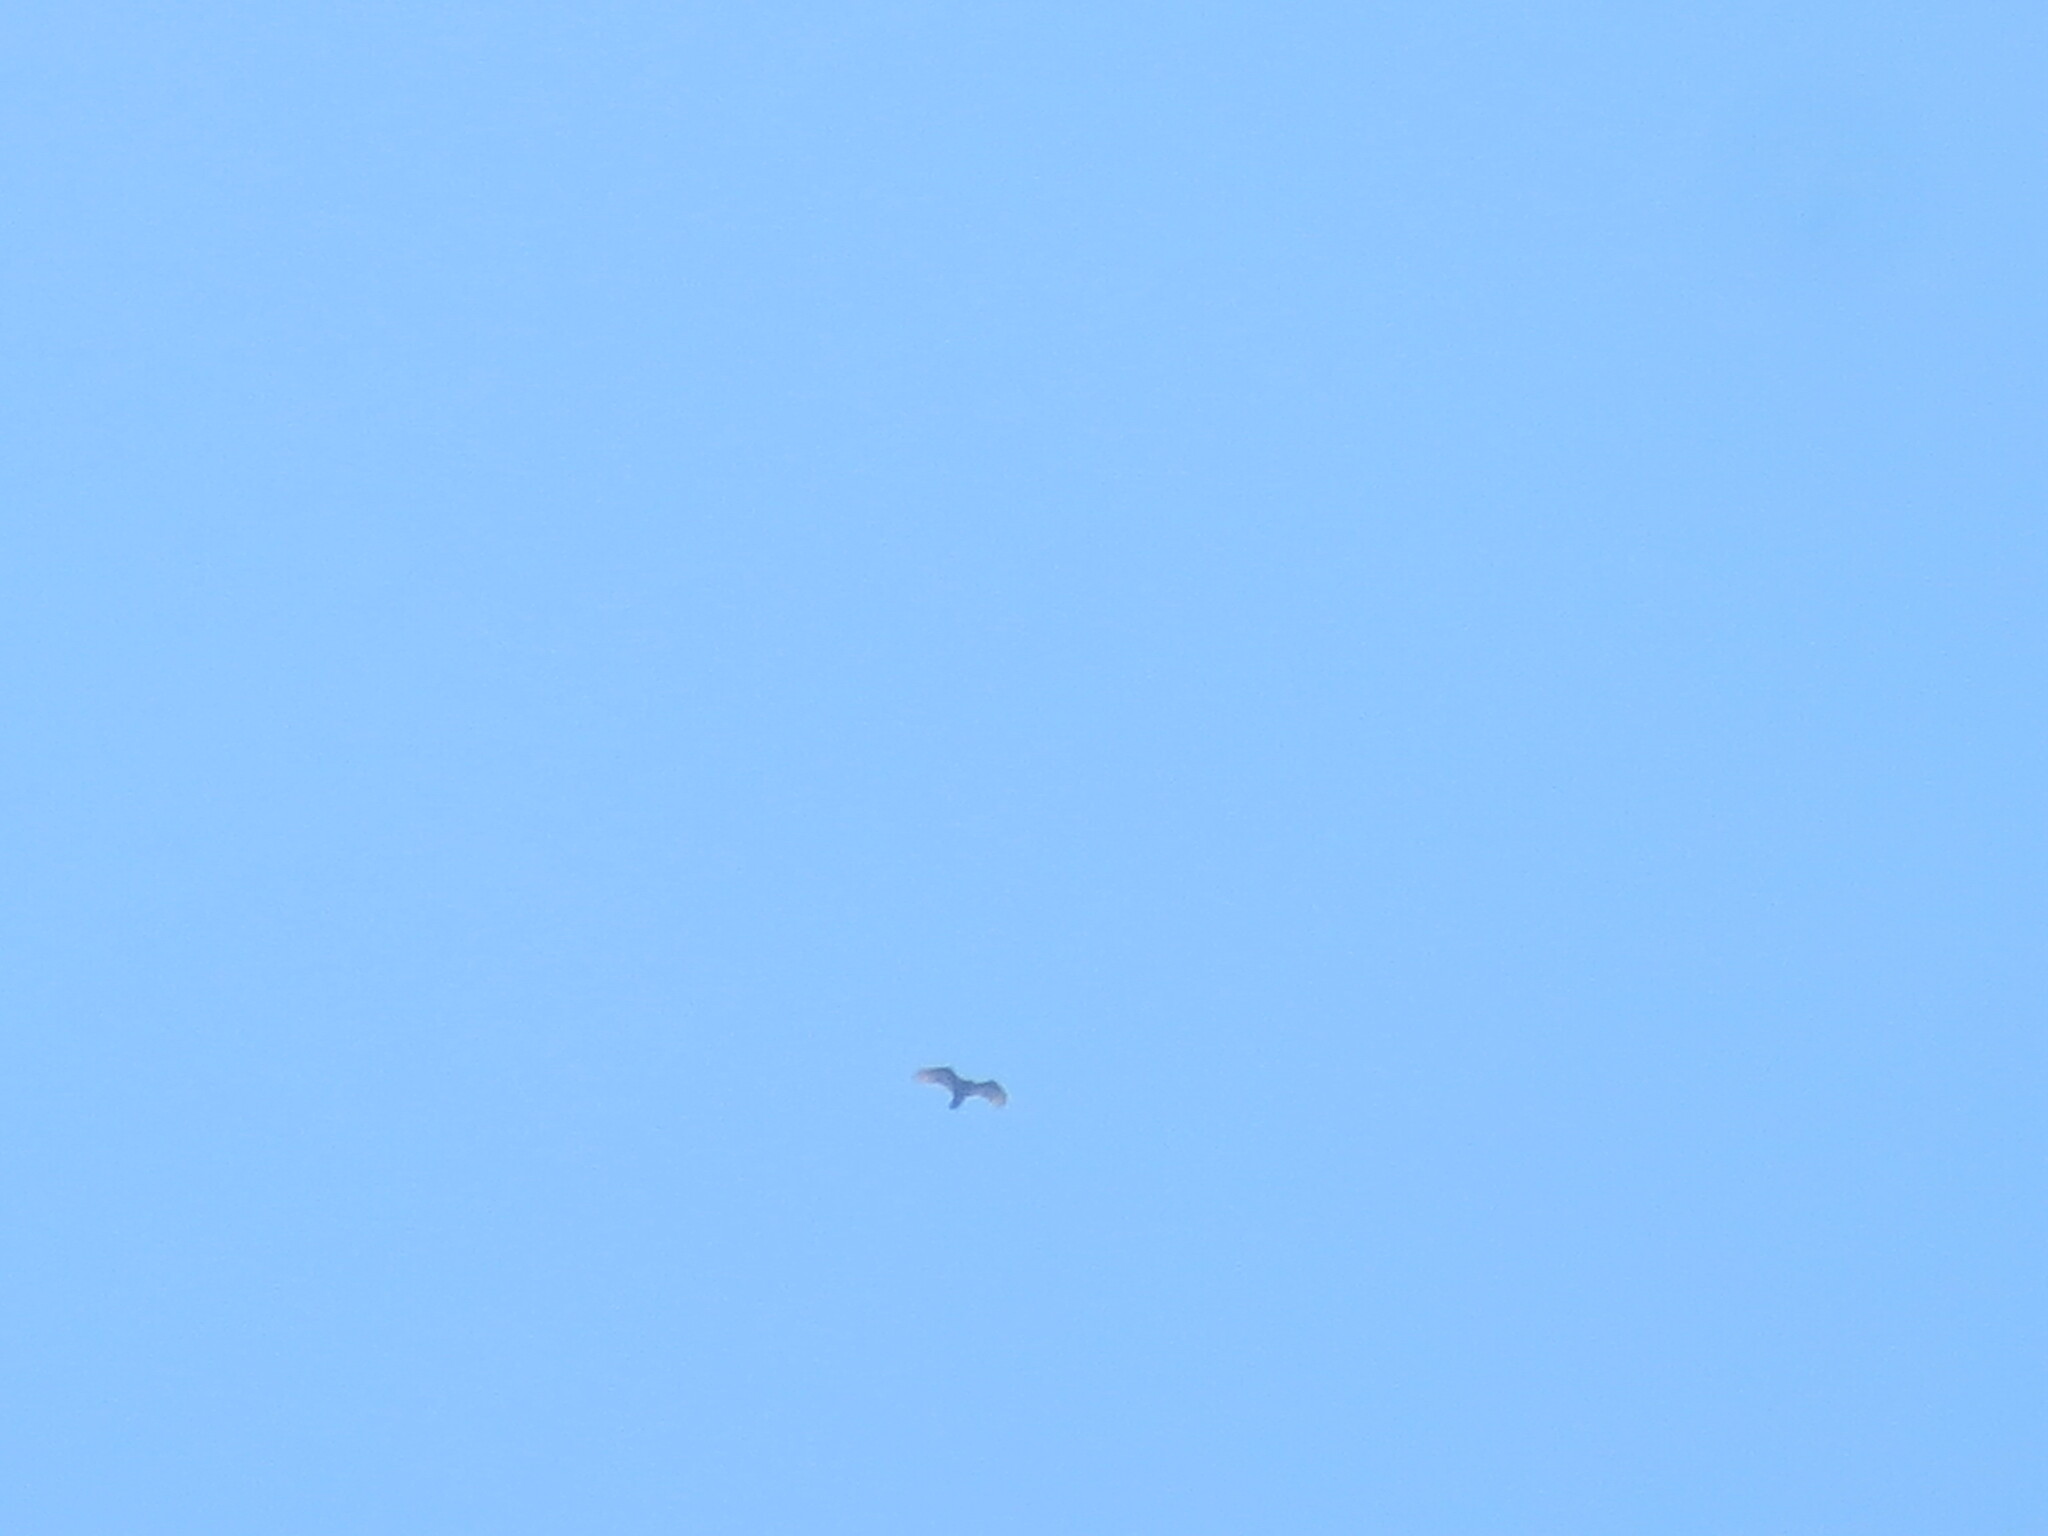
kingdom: Animalia
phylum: Chordata
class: Aves
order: Accipitriformes
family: Cathartidae
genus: Cathartes
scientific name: Cathartes aura
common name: Turkey vulture
